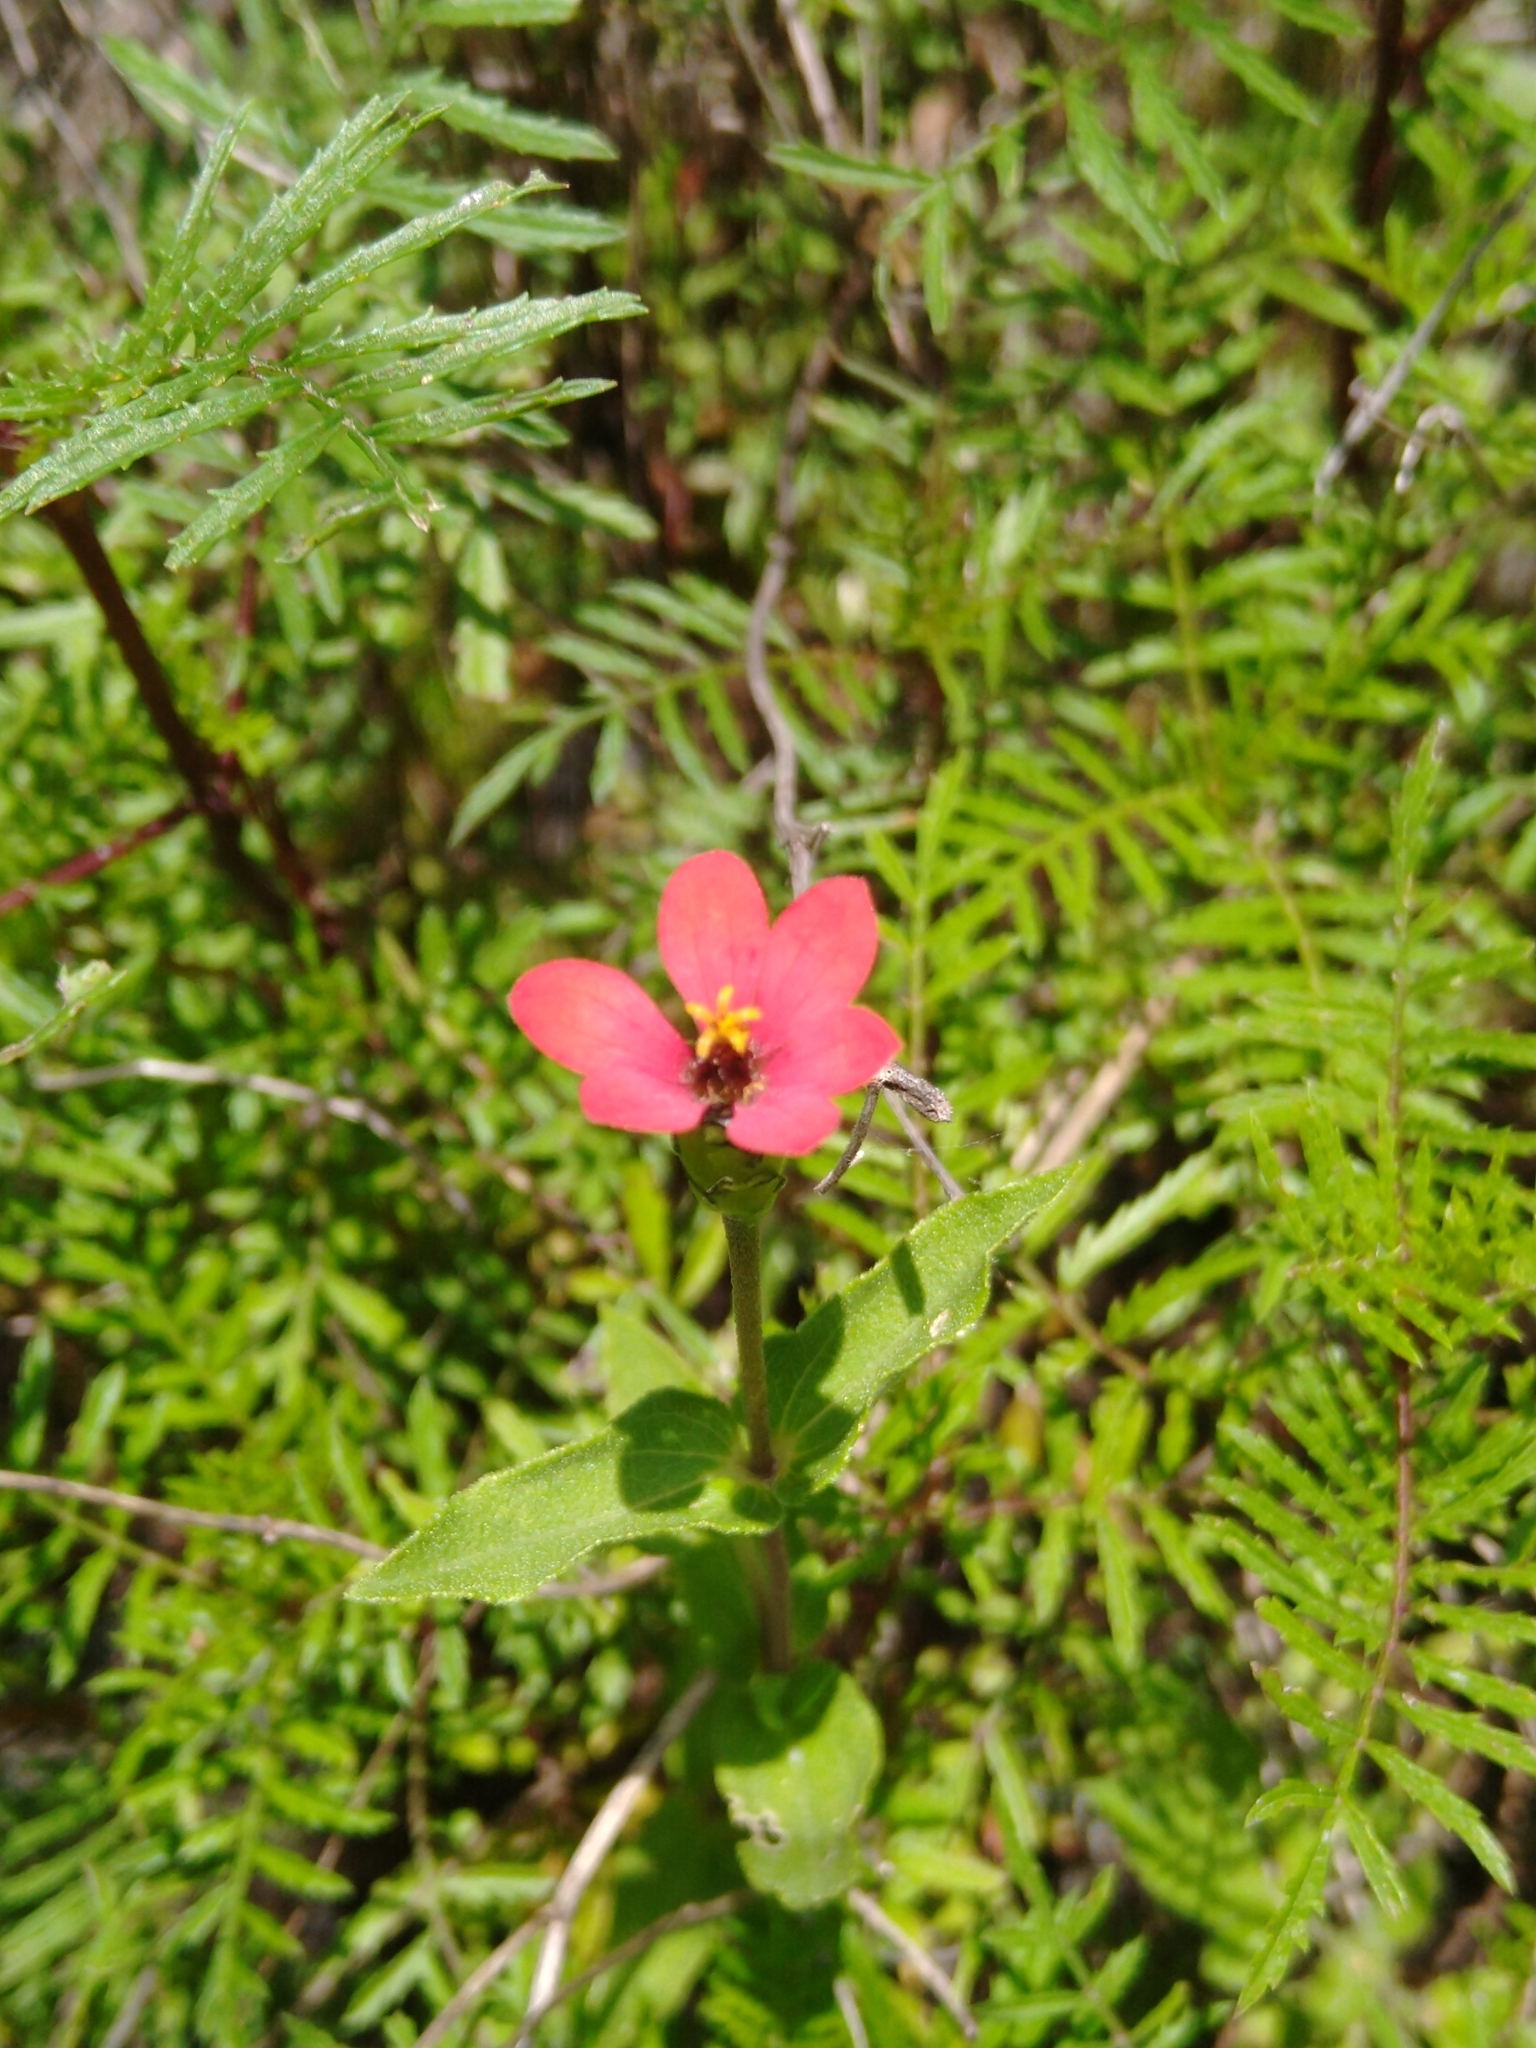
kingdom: Plantae
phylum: Tracheophyta
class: Magnoliopsida
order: Asterales
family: Asteraceae
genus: Zinnia
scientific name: Zinnia peruviana
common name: Peruvian zinnia
